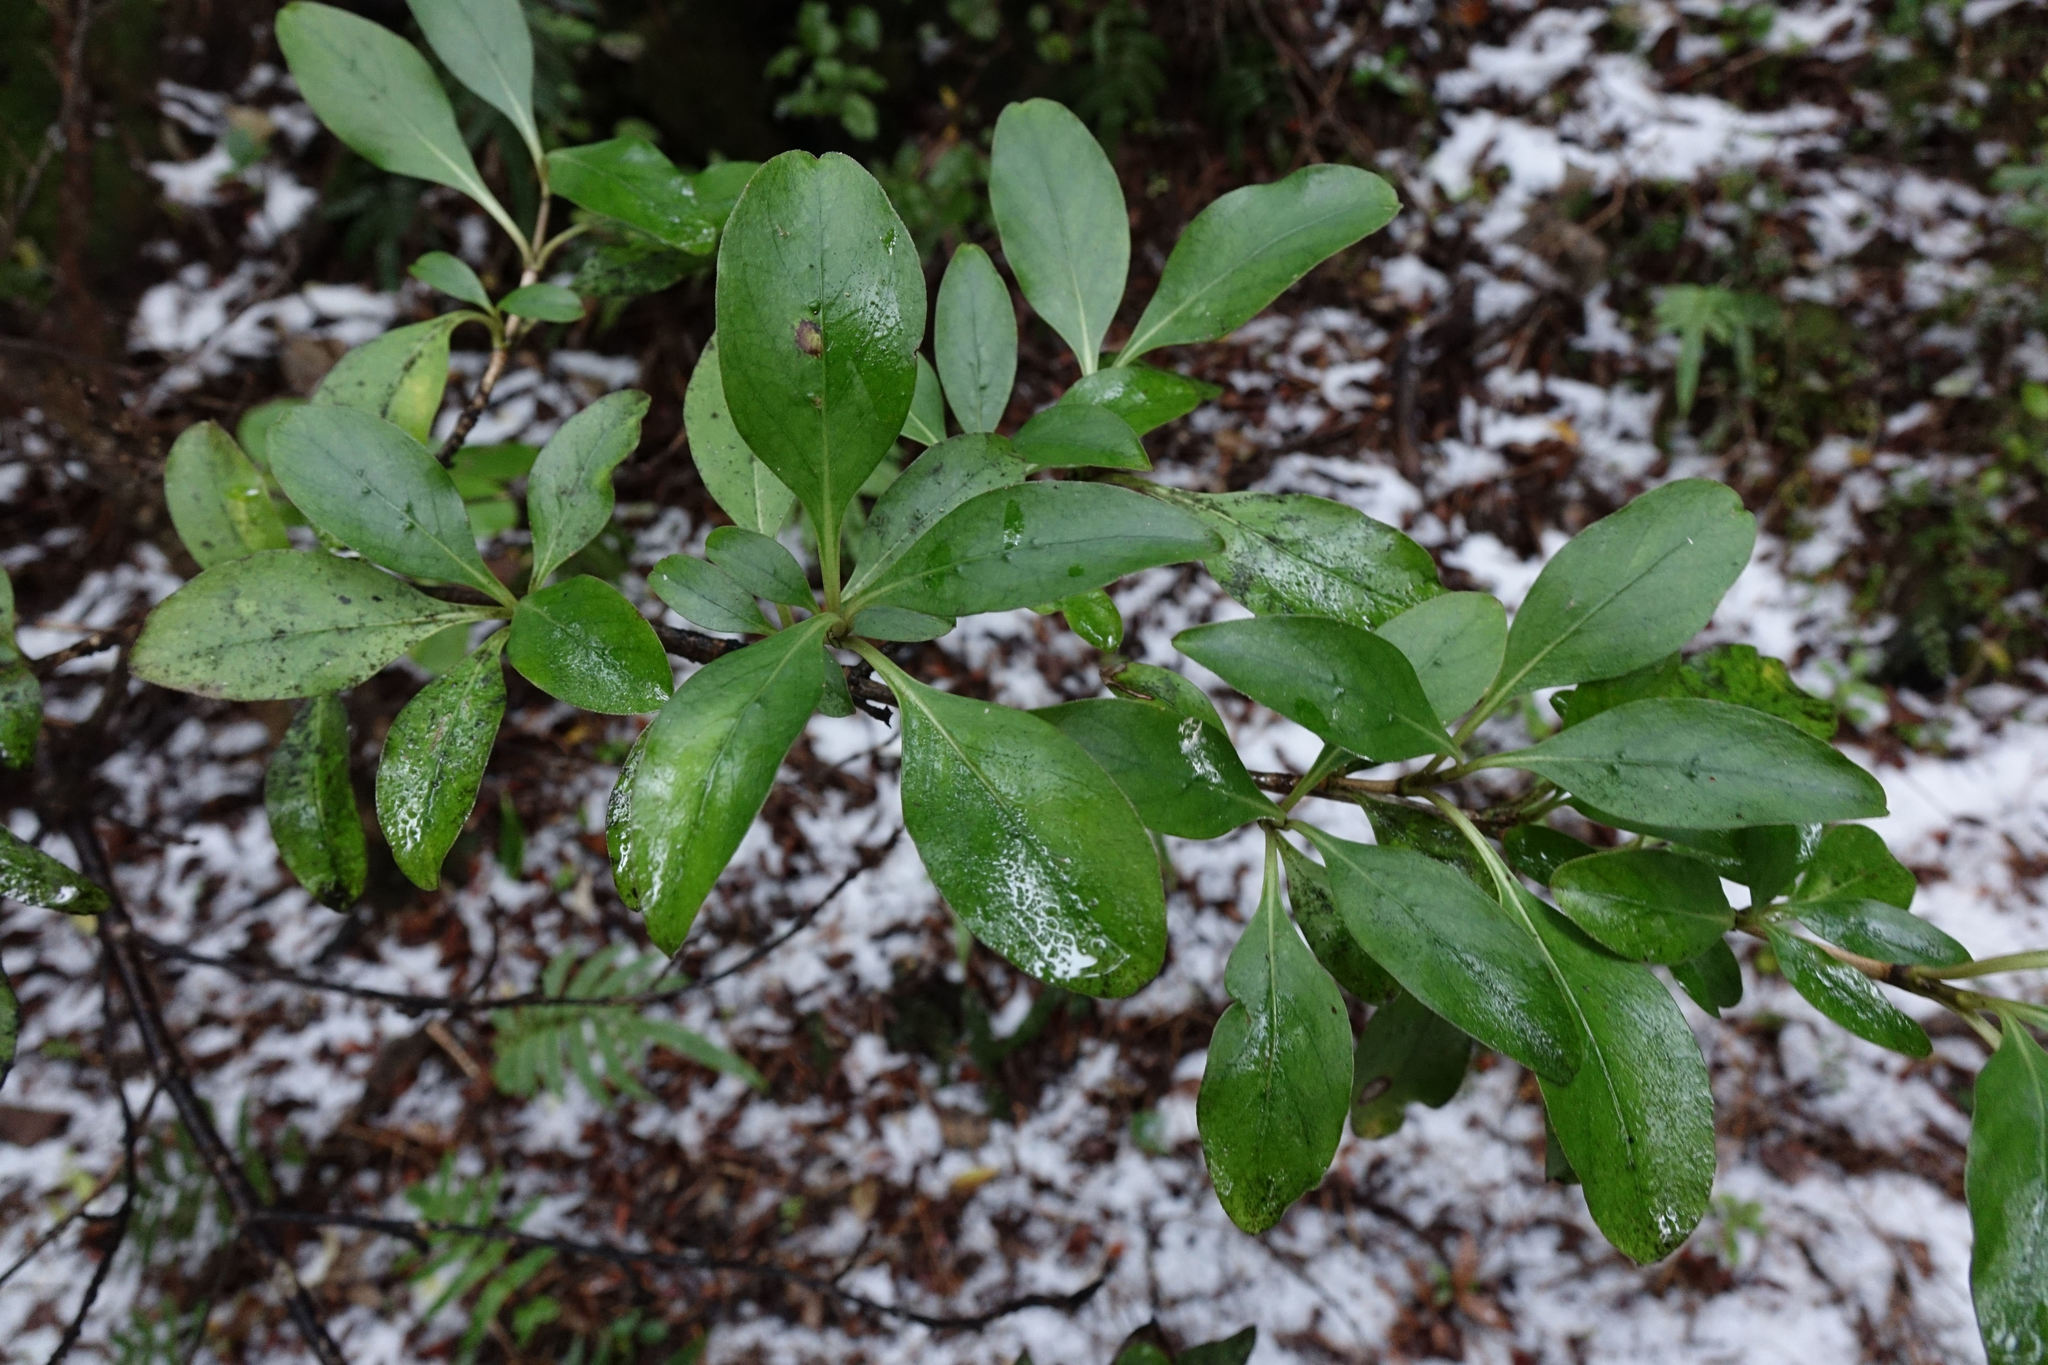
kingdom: Plantae
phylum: Tracheophyta
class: Magnoliopsida
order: Gentianales
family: Rubiaceae
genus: Coprosma
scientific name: Coprosma foetidissima
